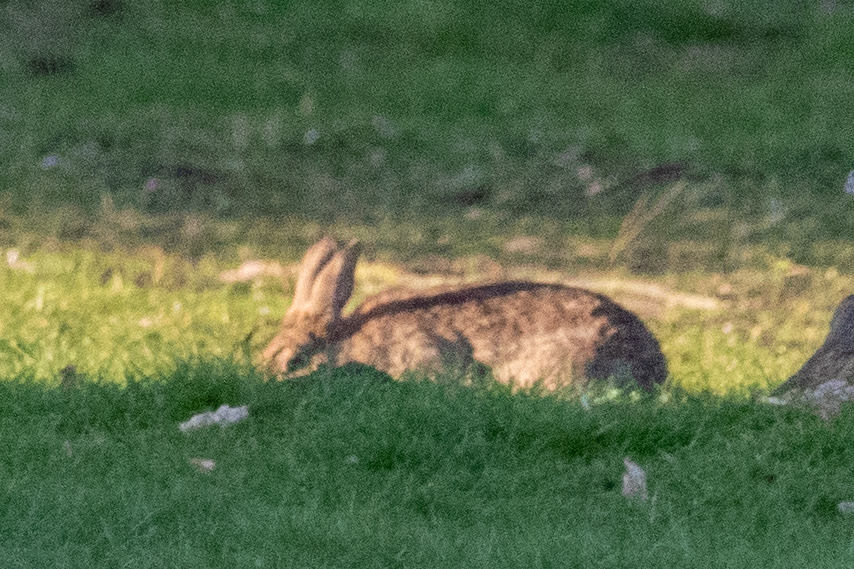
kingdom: Animalia
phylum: Chordata
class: Mammalia
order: Lagomorpha
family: Leporidae
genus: Oryctolagus
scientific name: Oryctolagus cuniculus
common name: European rabbit
